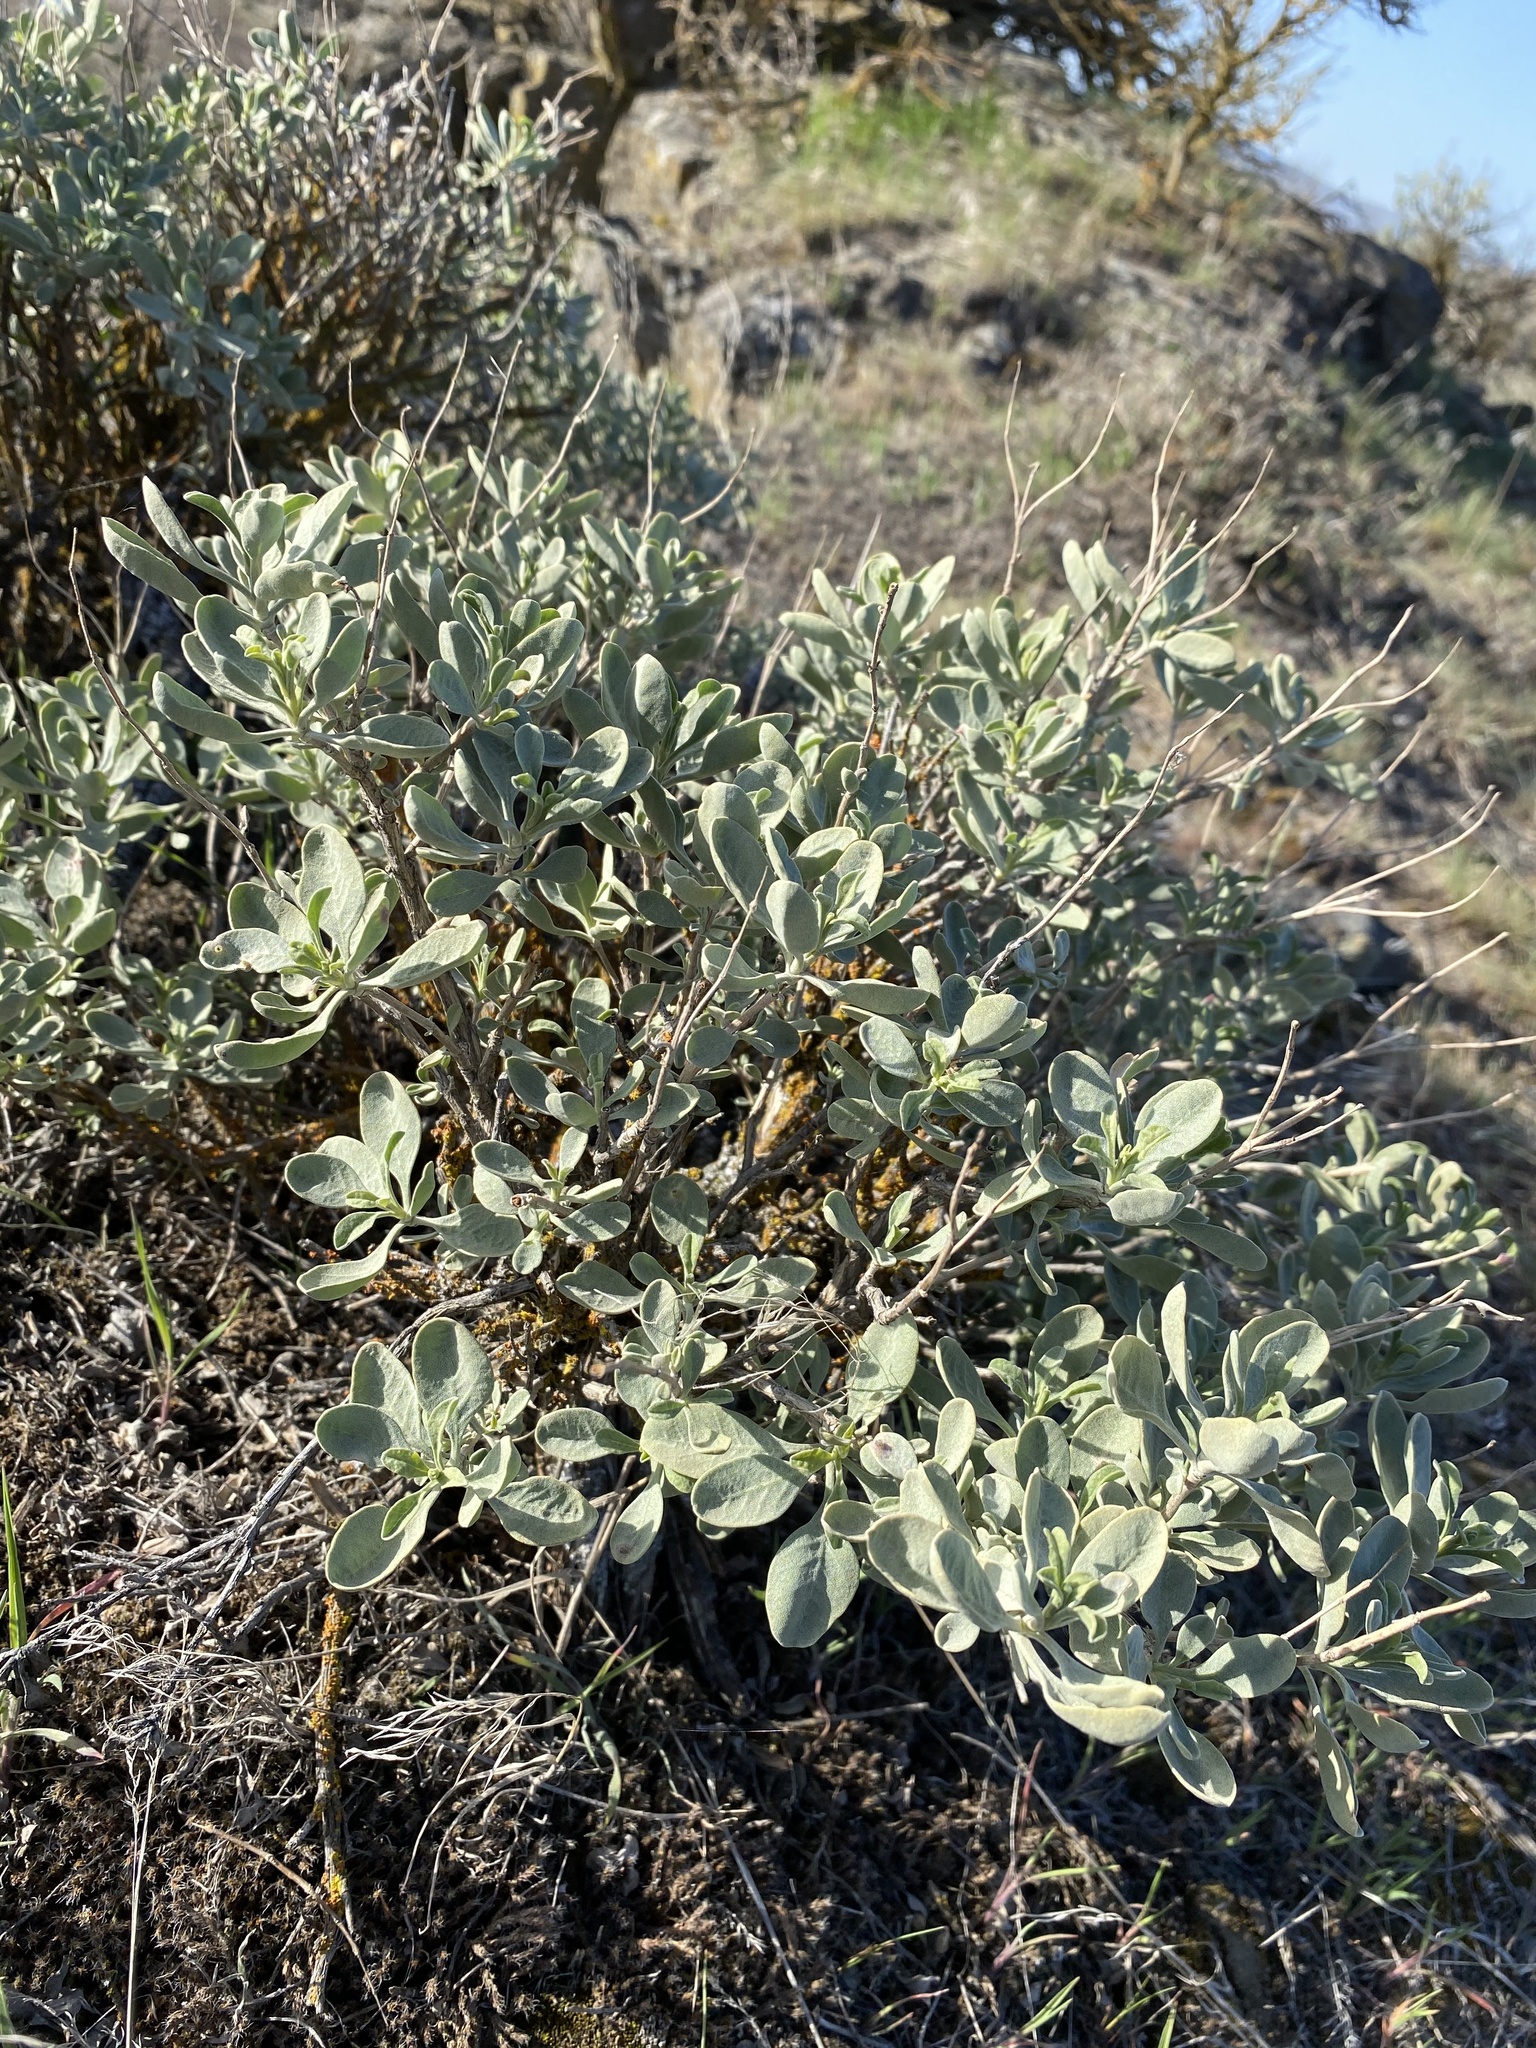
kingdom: Plantae
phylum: Tracheophyta
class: Magnoliopsida
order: Lamiales
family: Lamiaceae
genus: Salvia
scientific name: Salvia dorrii
